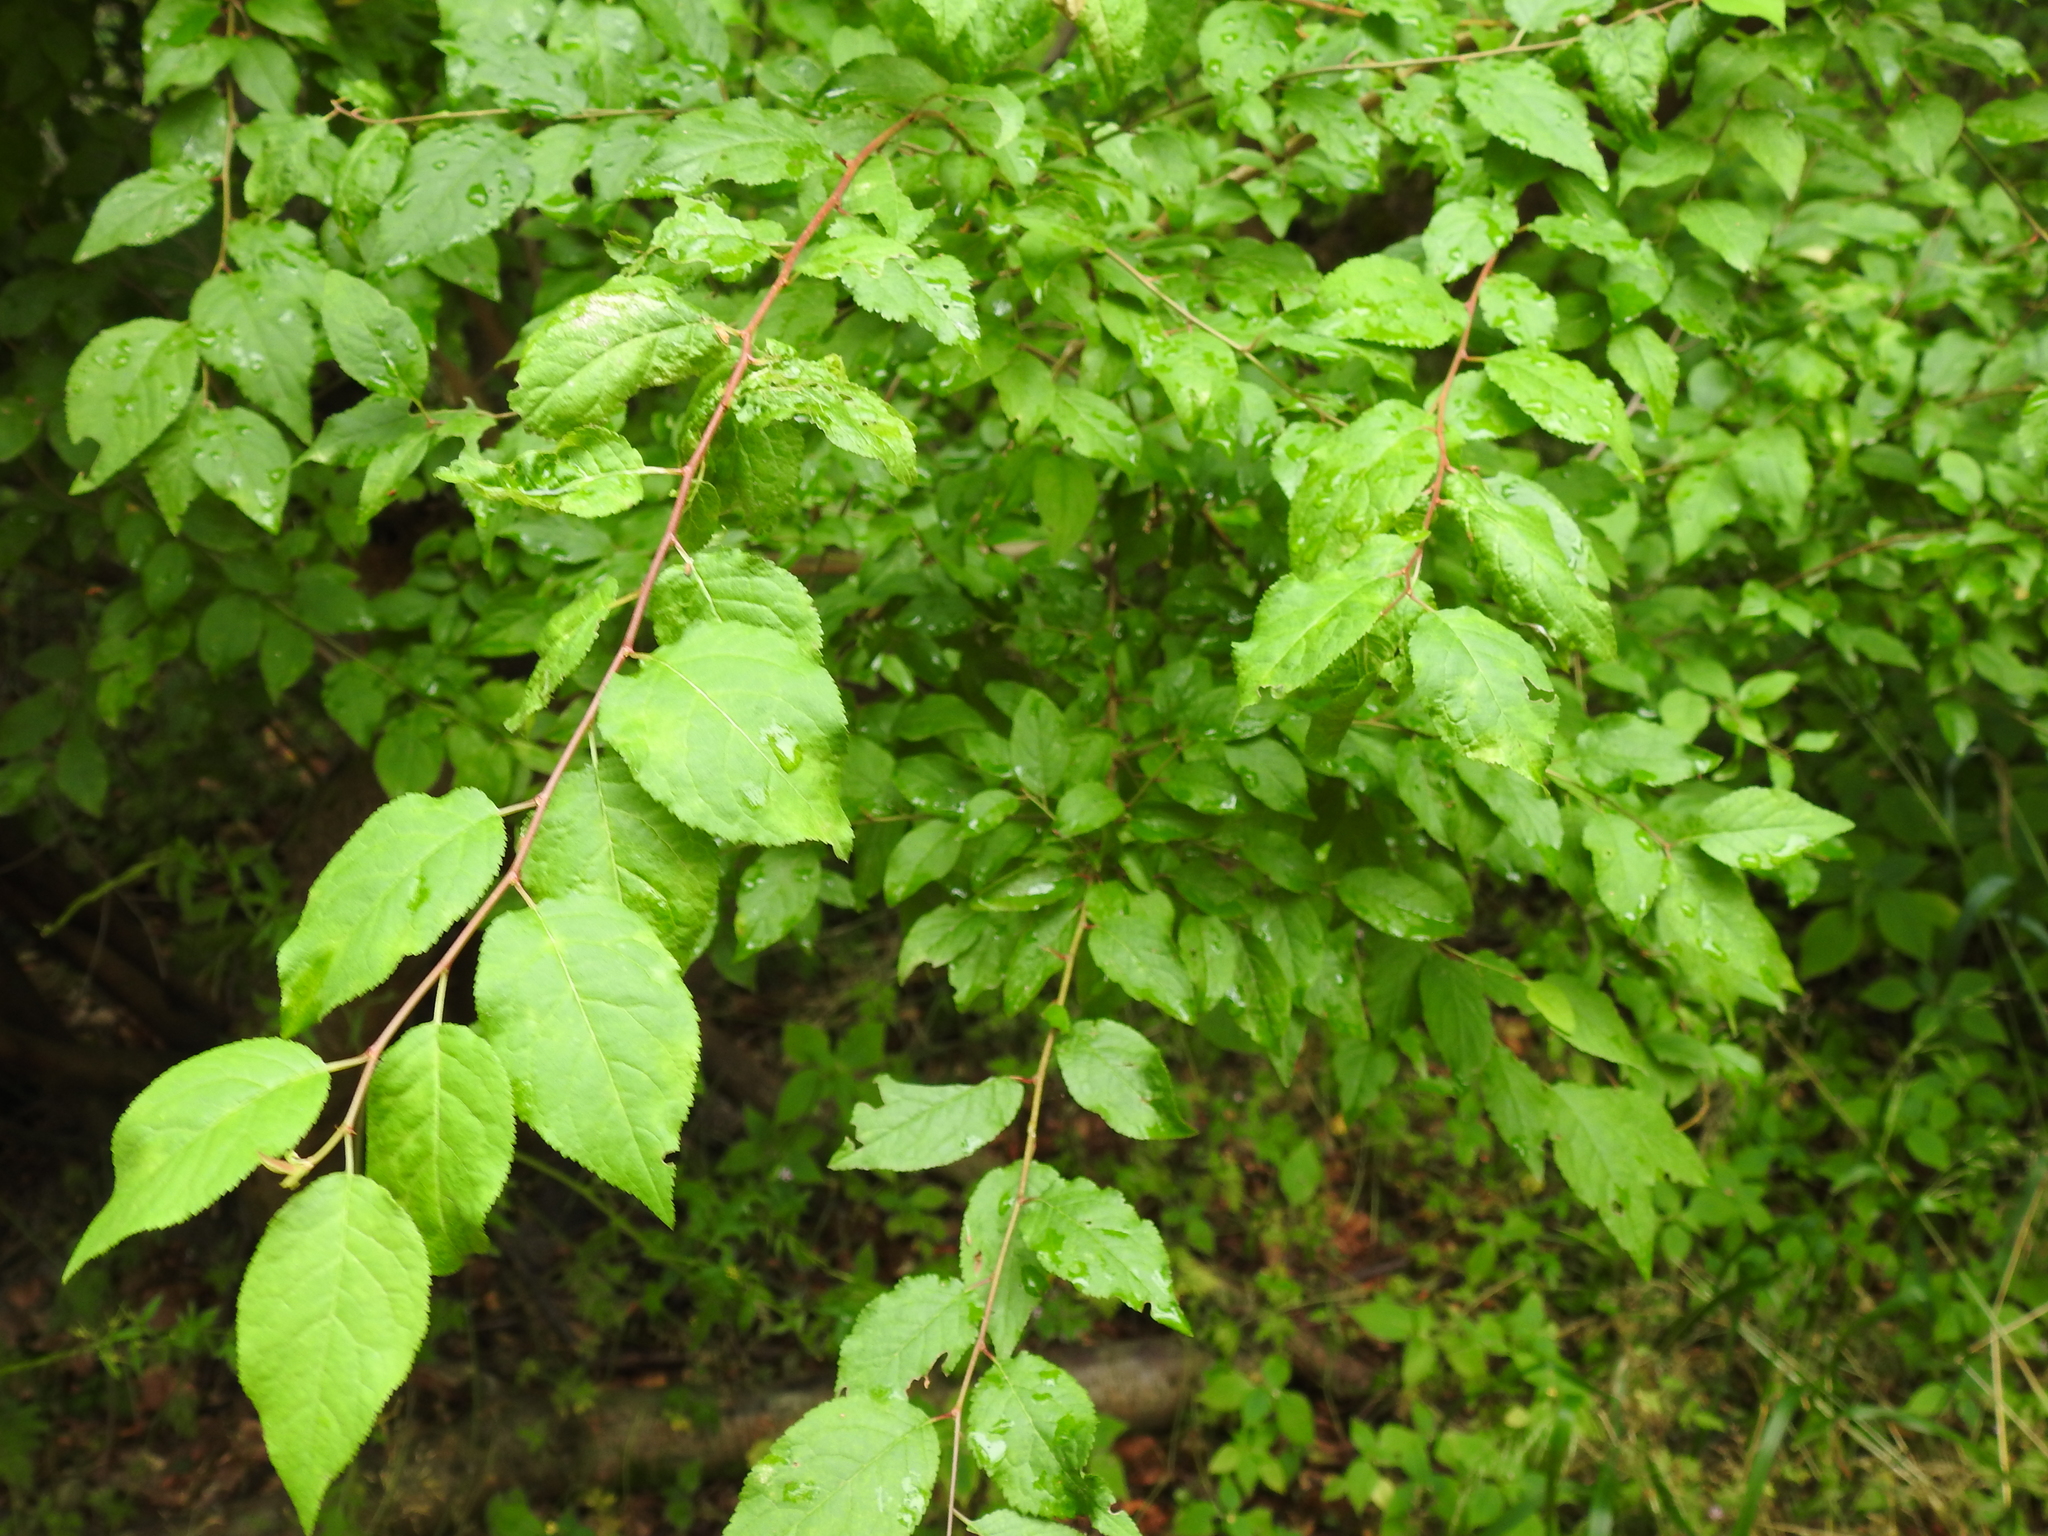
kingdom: Plantae
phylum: Tracheophyta
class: Magnoliopsida
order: Rosales
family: Rosaceae
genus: Prunus
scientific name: Prunus cerasifera
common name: Cherry plum
